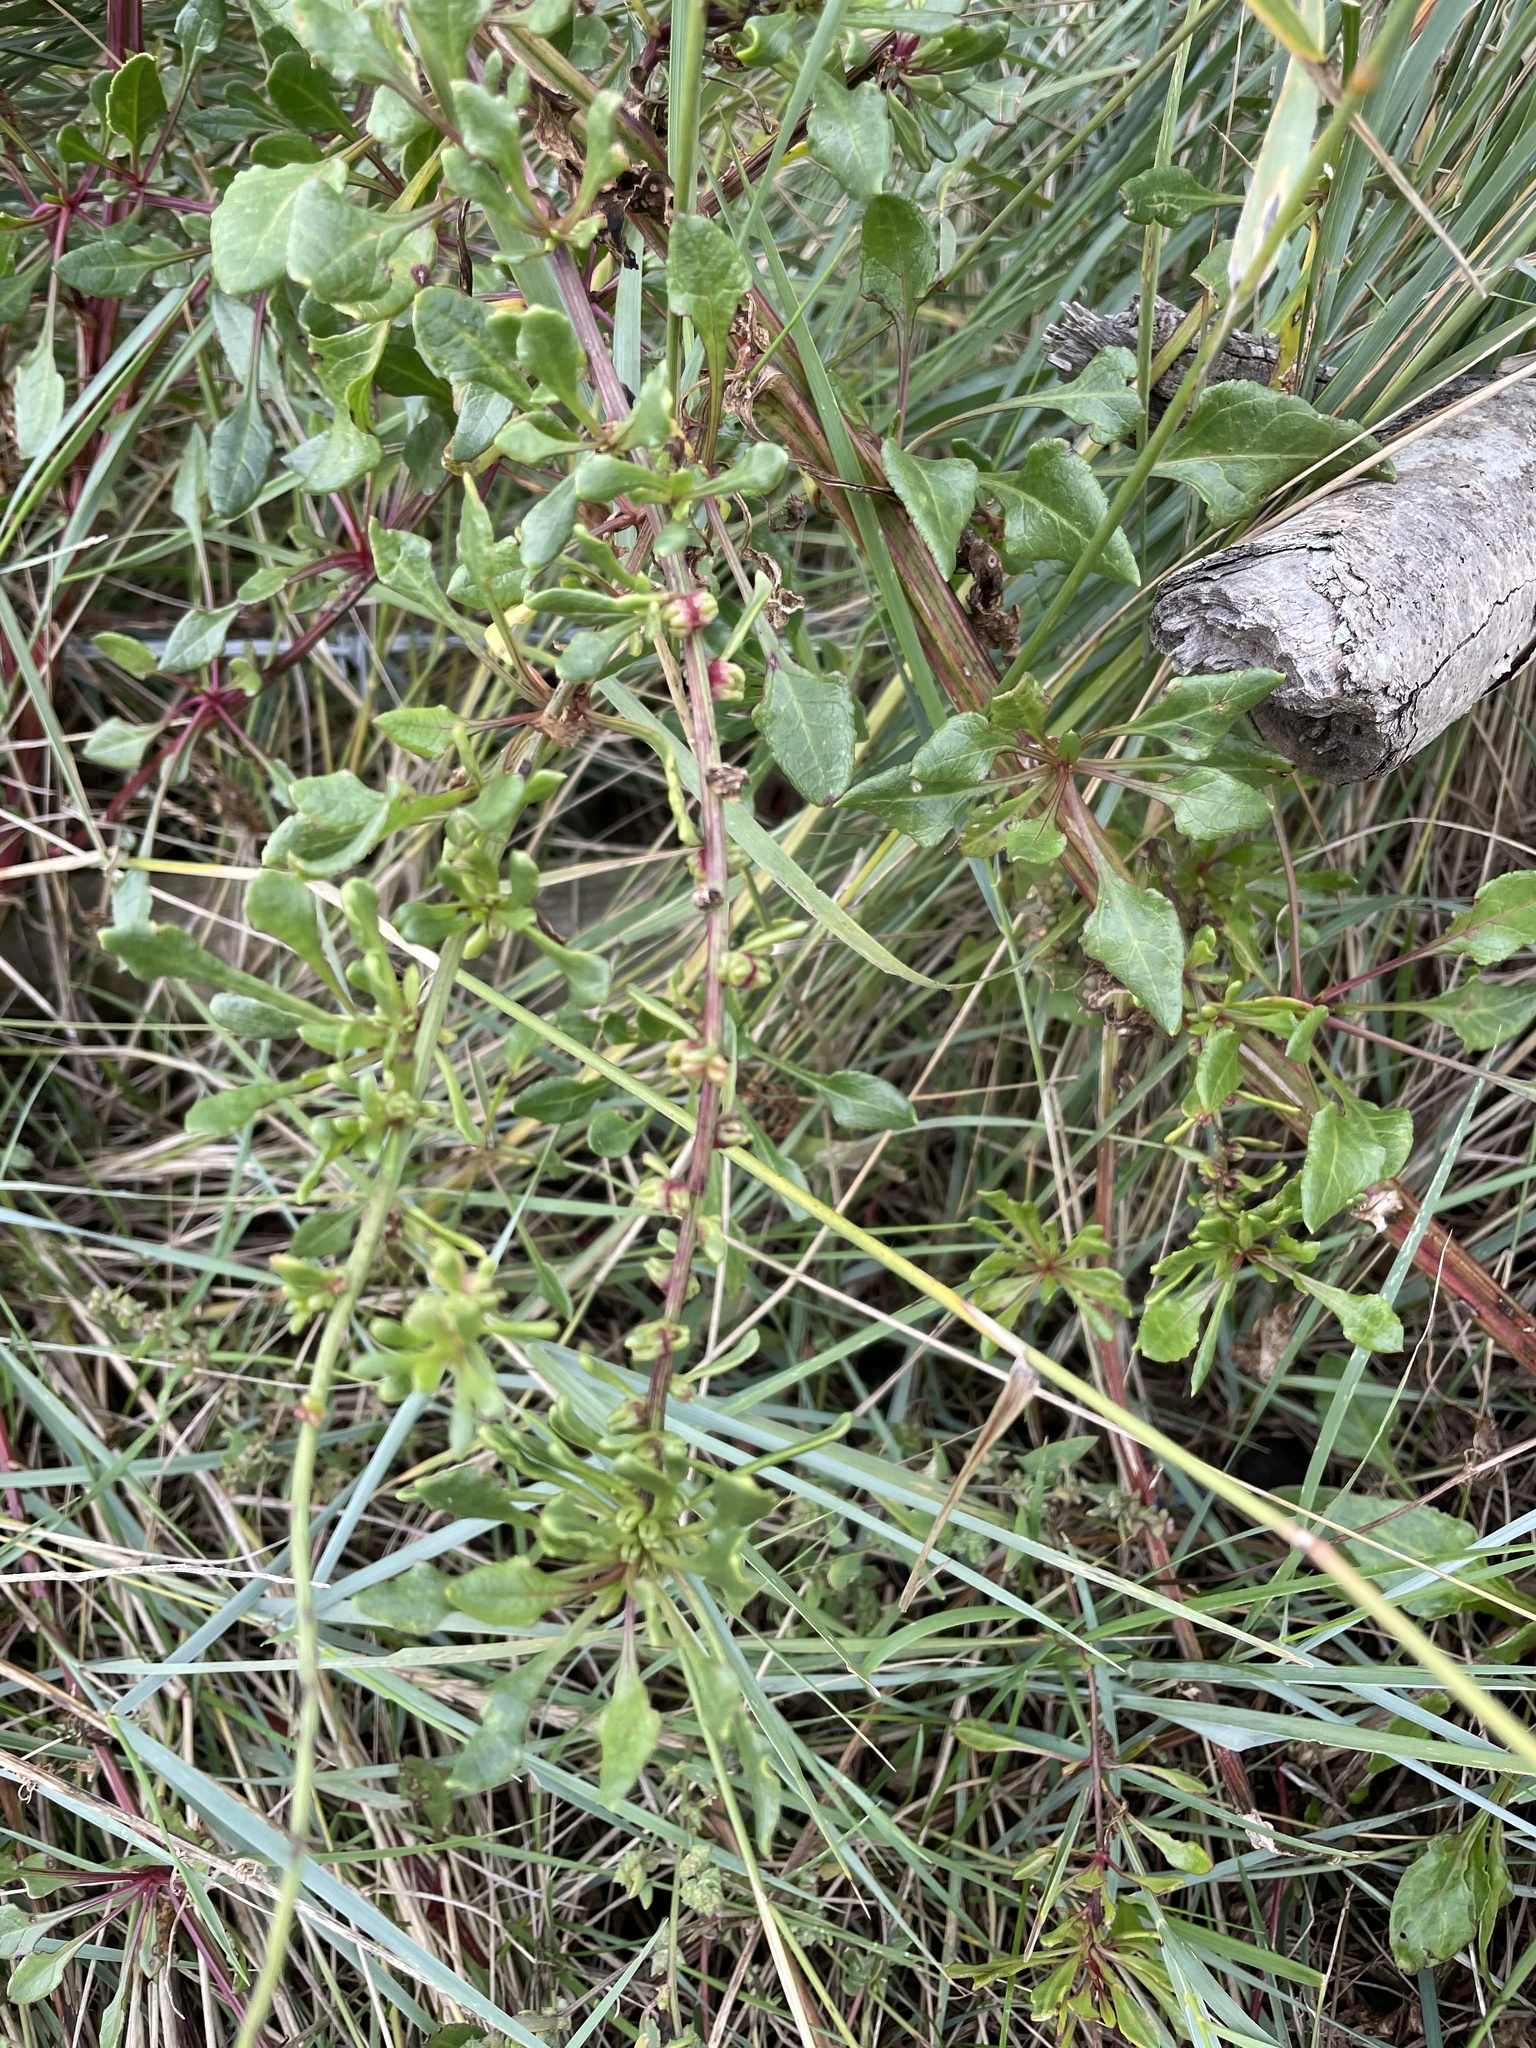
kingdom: Plantae
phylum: Tracheophyta
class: Magnoliopsida
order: Caryophyllales
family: Amaranthaceae
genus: Beta
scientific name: Beta vulgaris
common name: Beet
